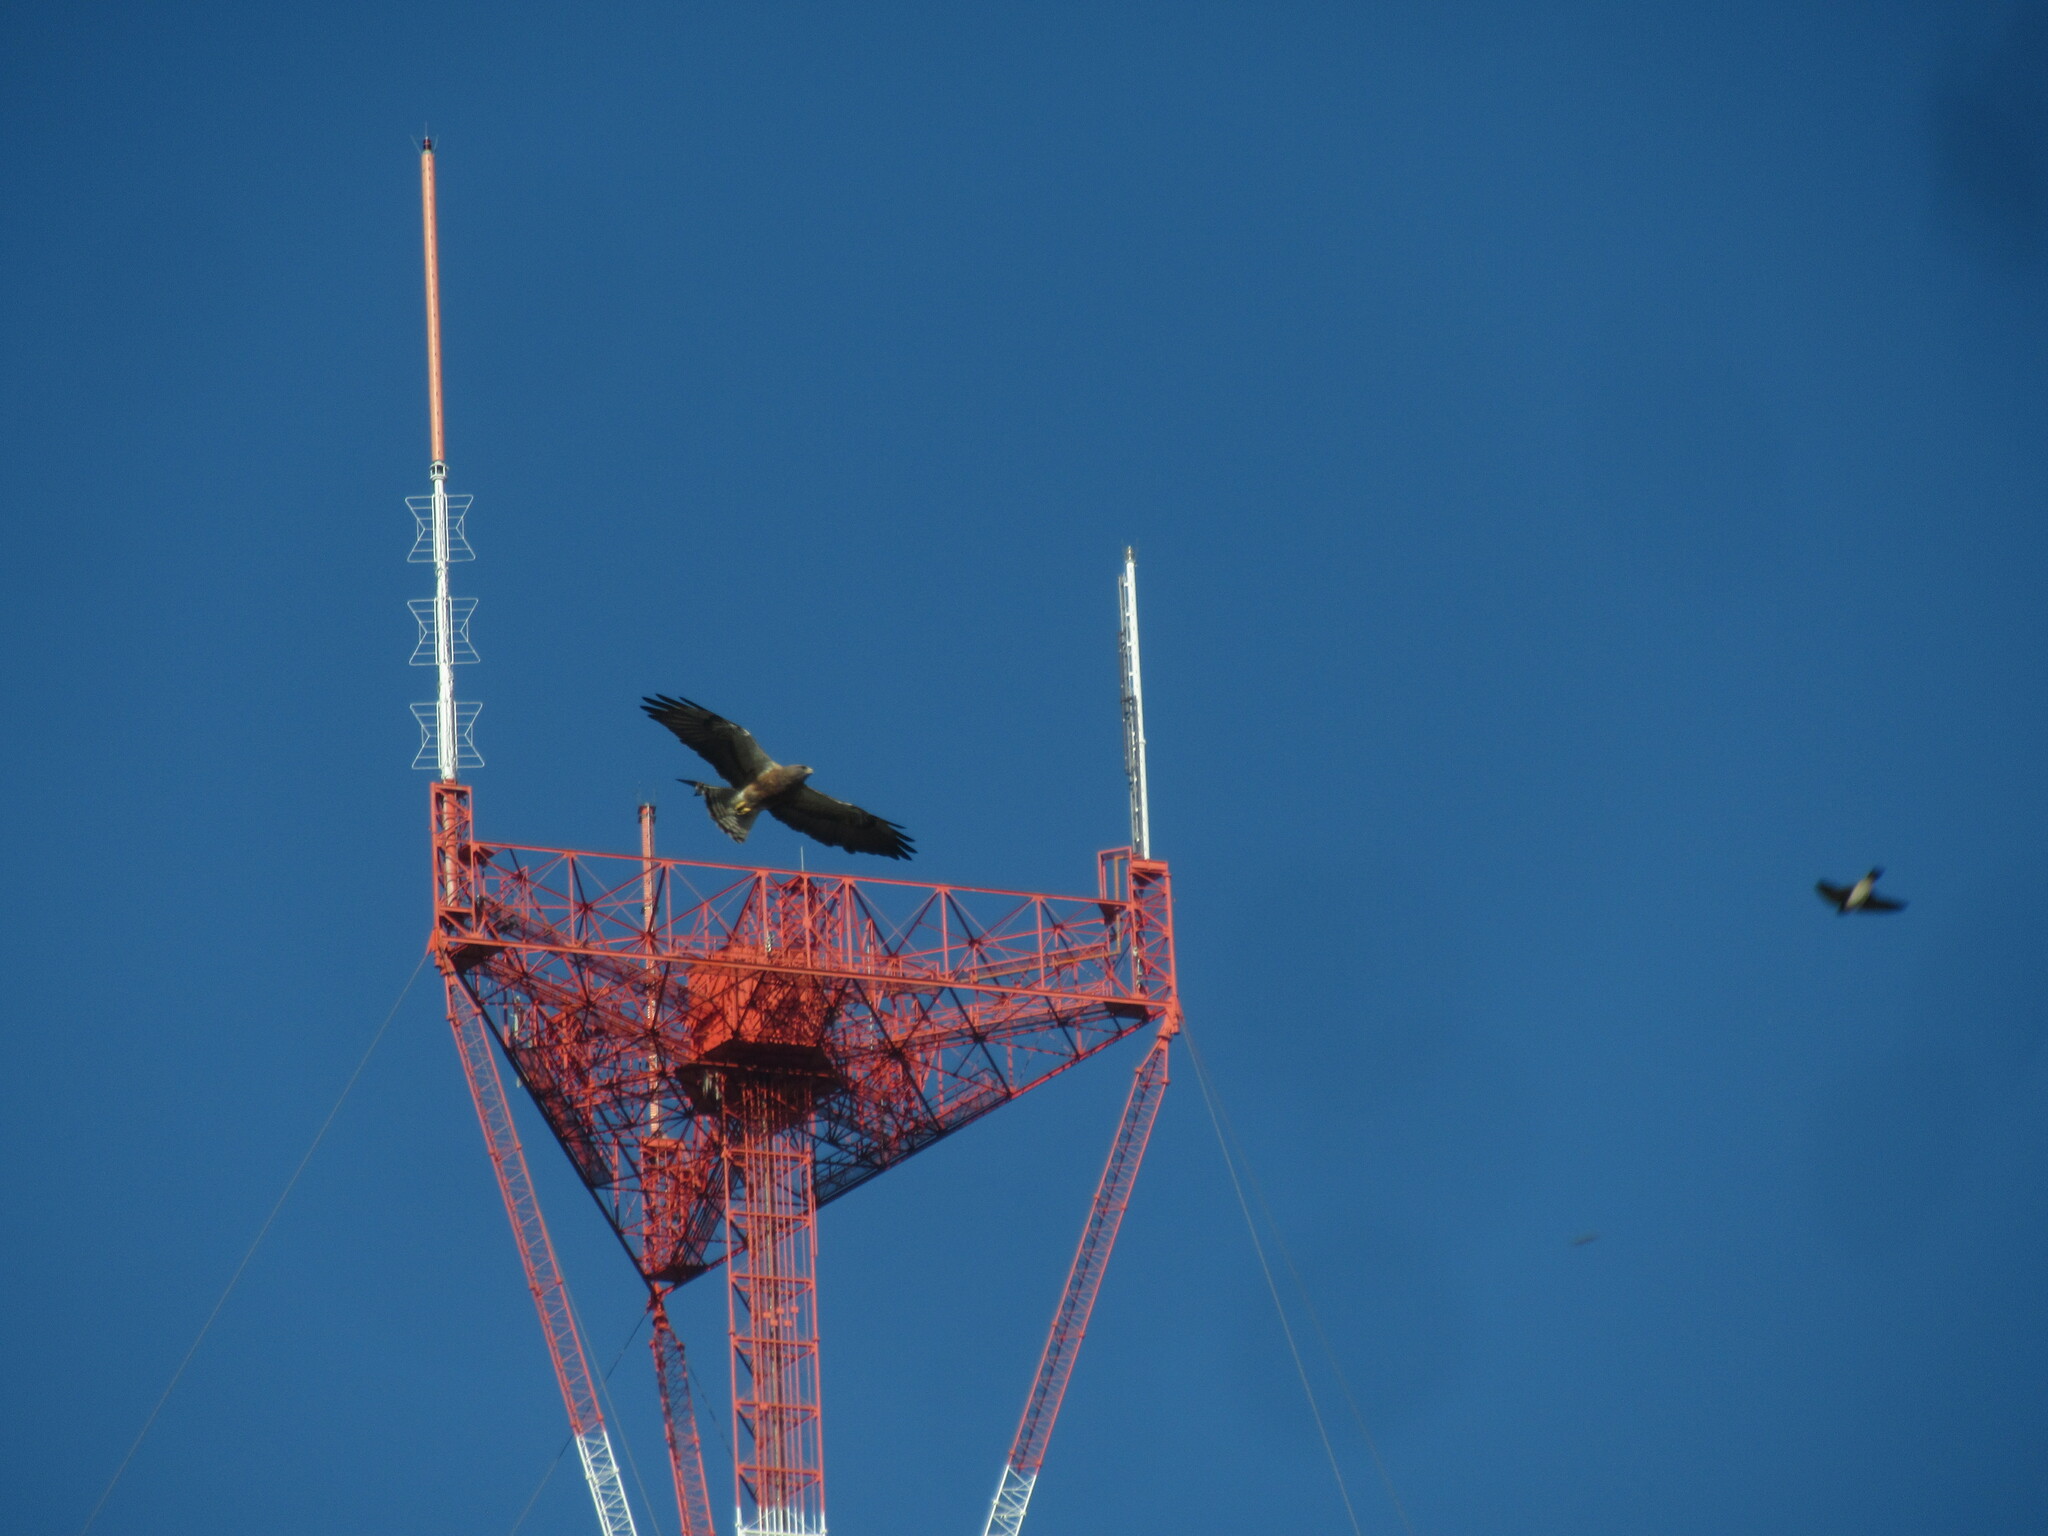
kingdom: Animalia
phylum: Chordata
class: Aves
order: Accipitriformes
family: Accipitridae
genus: Buteo
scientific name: Buteo swainsoni
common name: Swainson's hawk
